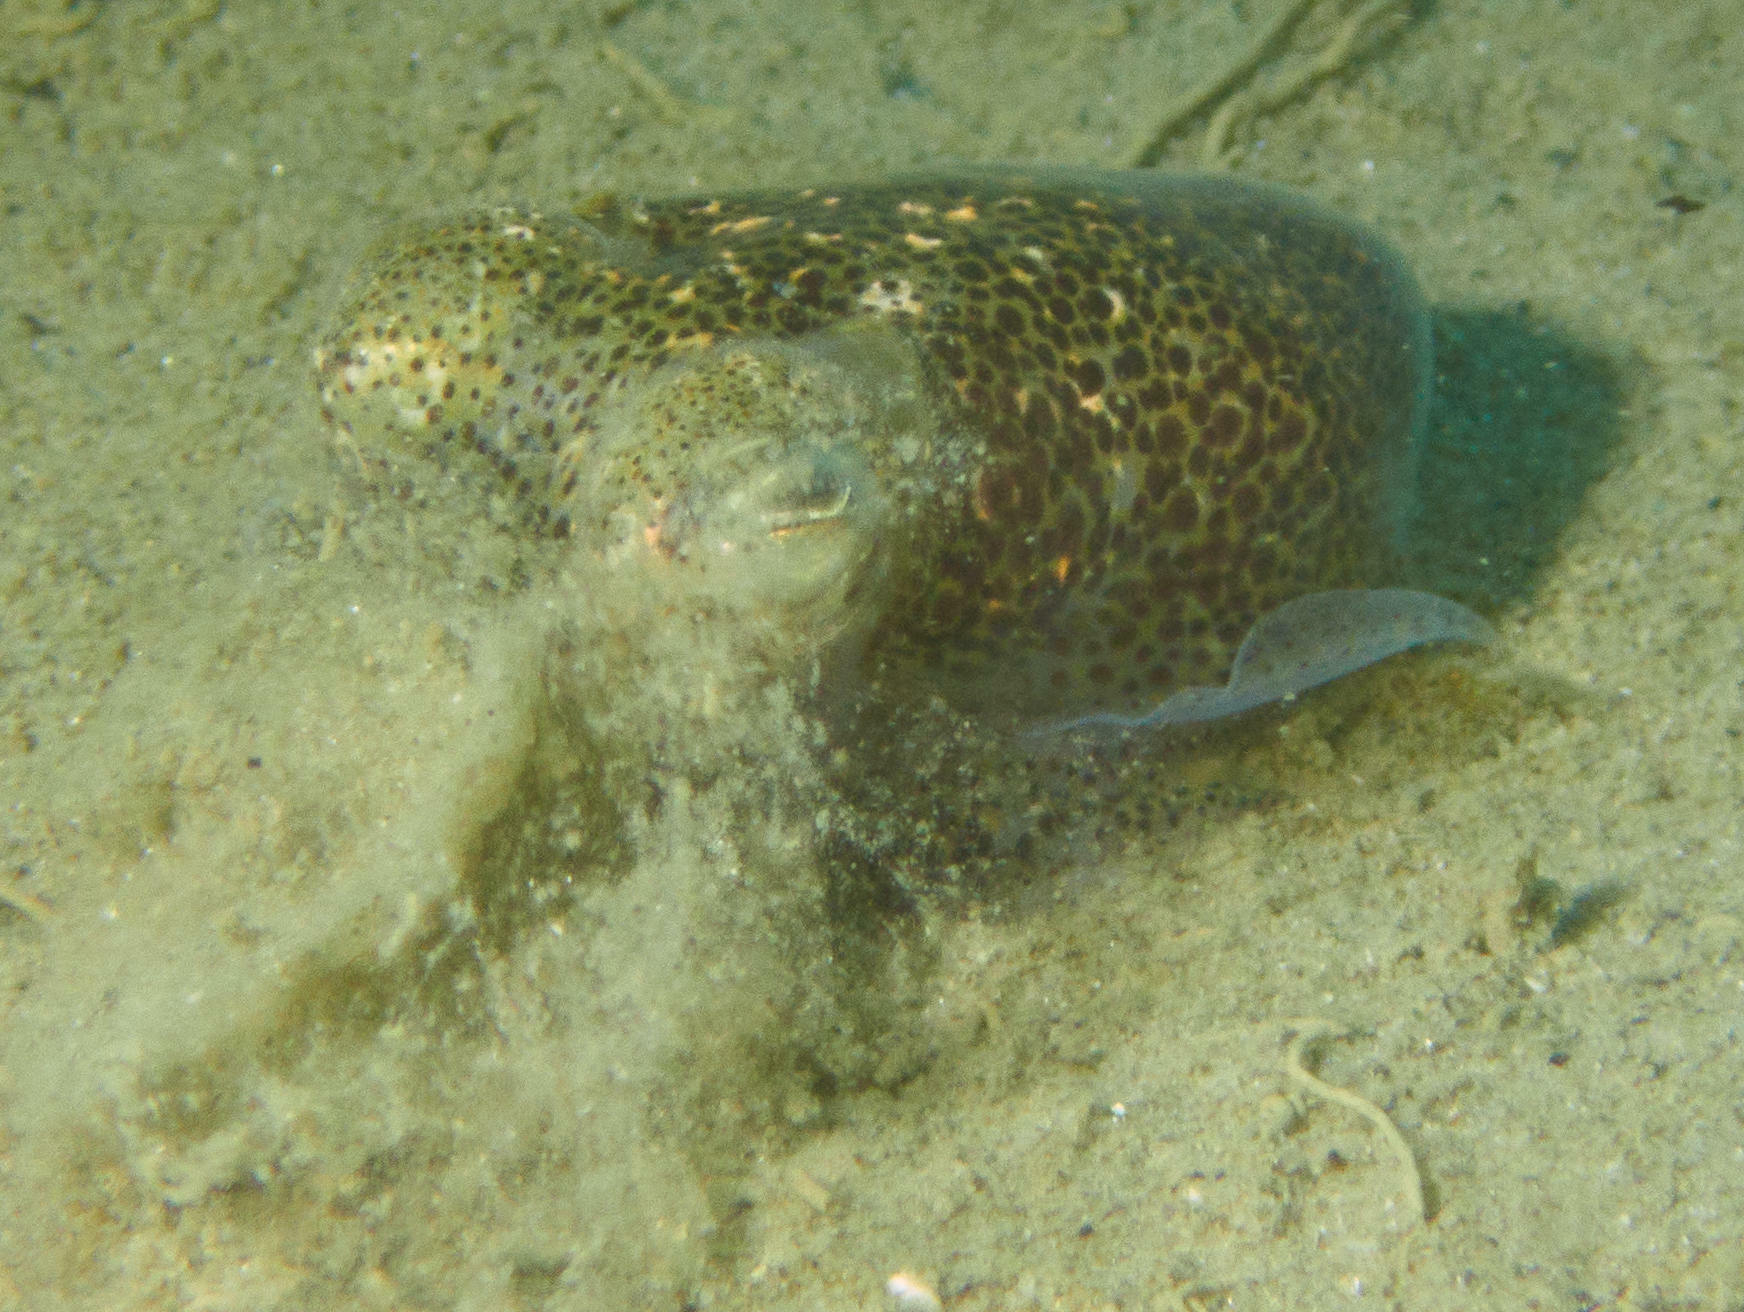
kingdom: Animalia
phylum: Mollusca
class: Cephalopoda
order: Sepiida
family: Sepiadariidae
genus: Sepioloidea
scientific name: Sepioloidea pacifica
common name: Pacific bobtail squid
